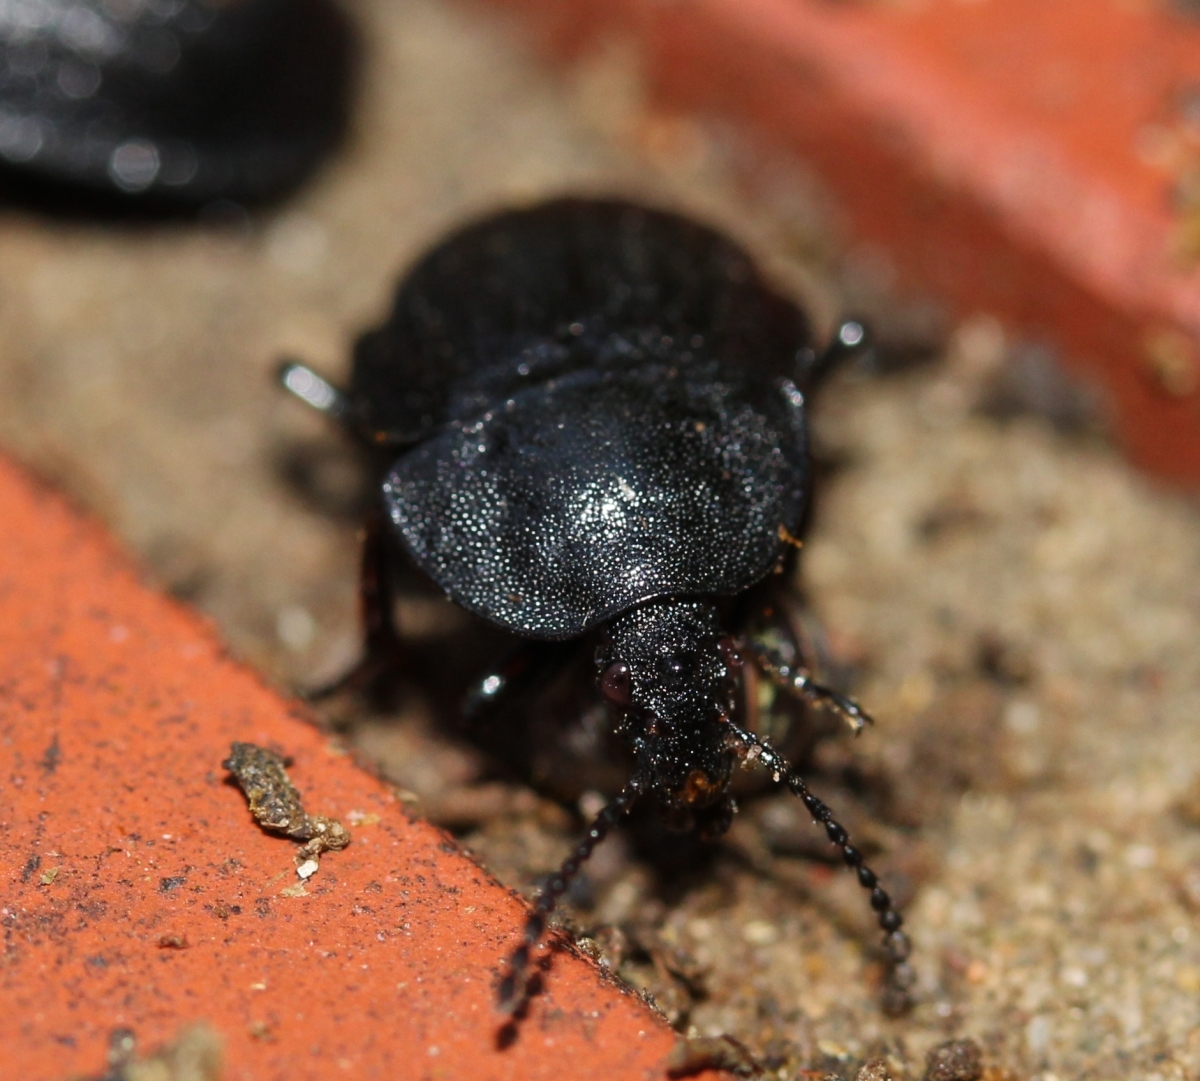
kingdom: Animalia
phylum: Arthropoda
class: Insecta
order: Coleoptera
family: Staphylinidae
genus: Silpha
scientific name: Silpha atrata
